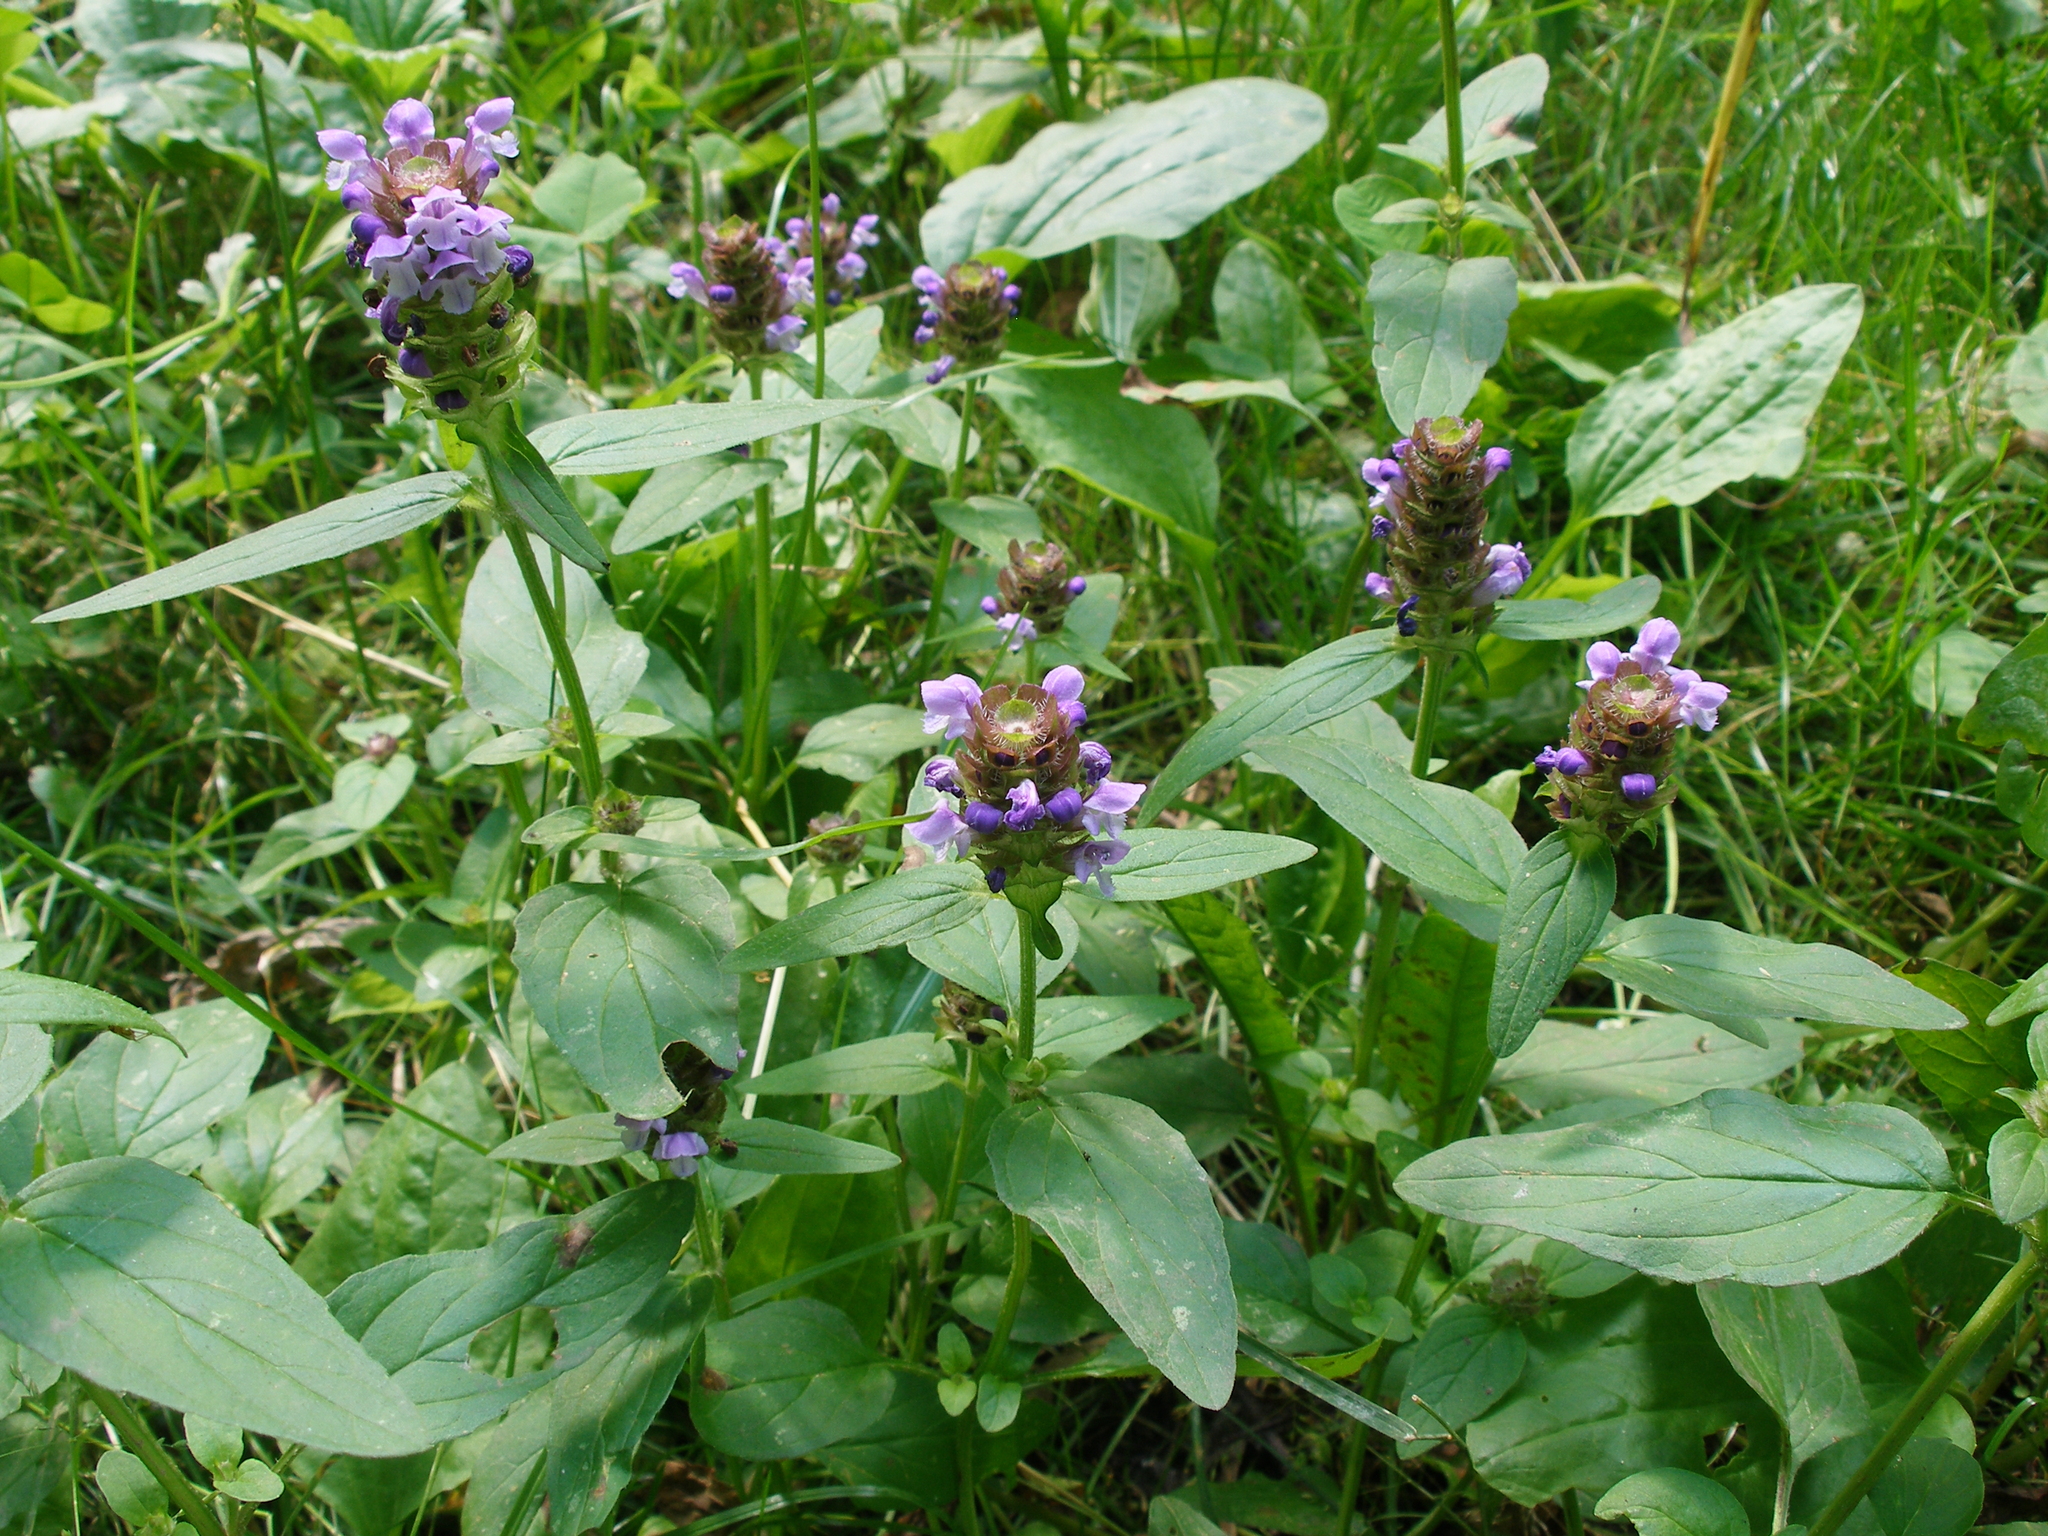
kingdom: Plantae
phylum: Tracheophyta
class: Magnoliopsida
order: Lamiales
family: Lamiaceae
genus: Prunella
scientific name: Prunella vulgaris
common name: Heal-all
